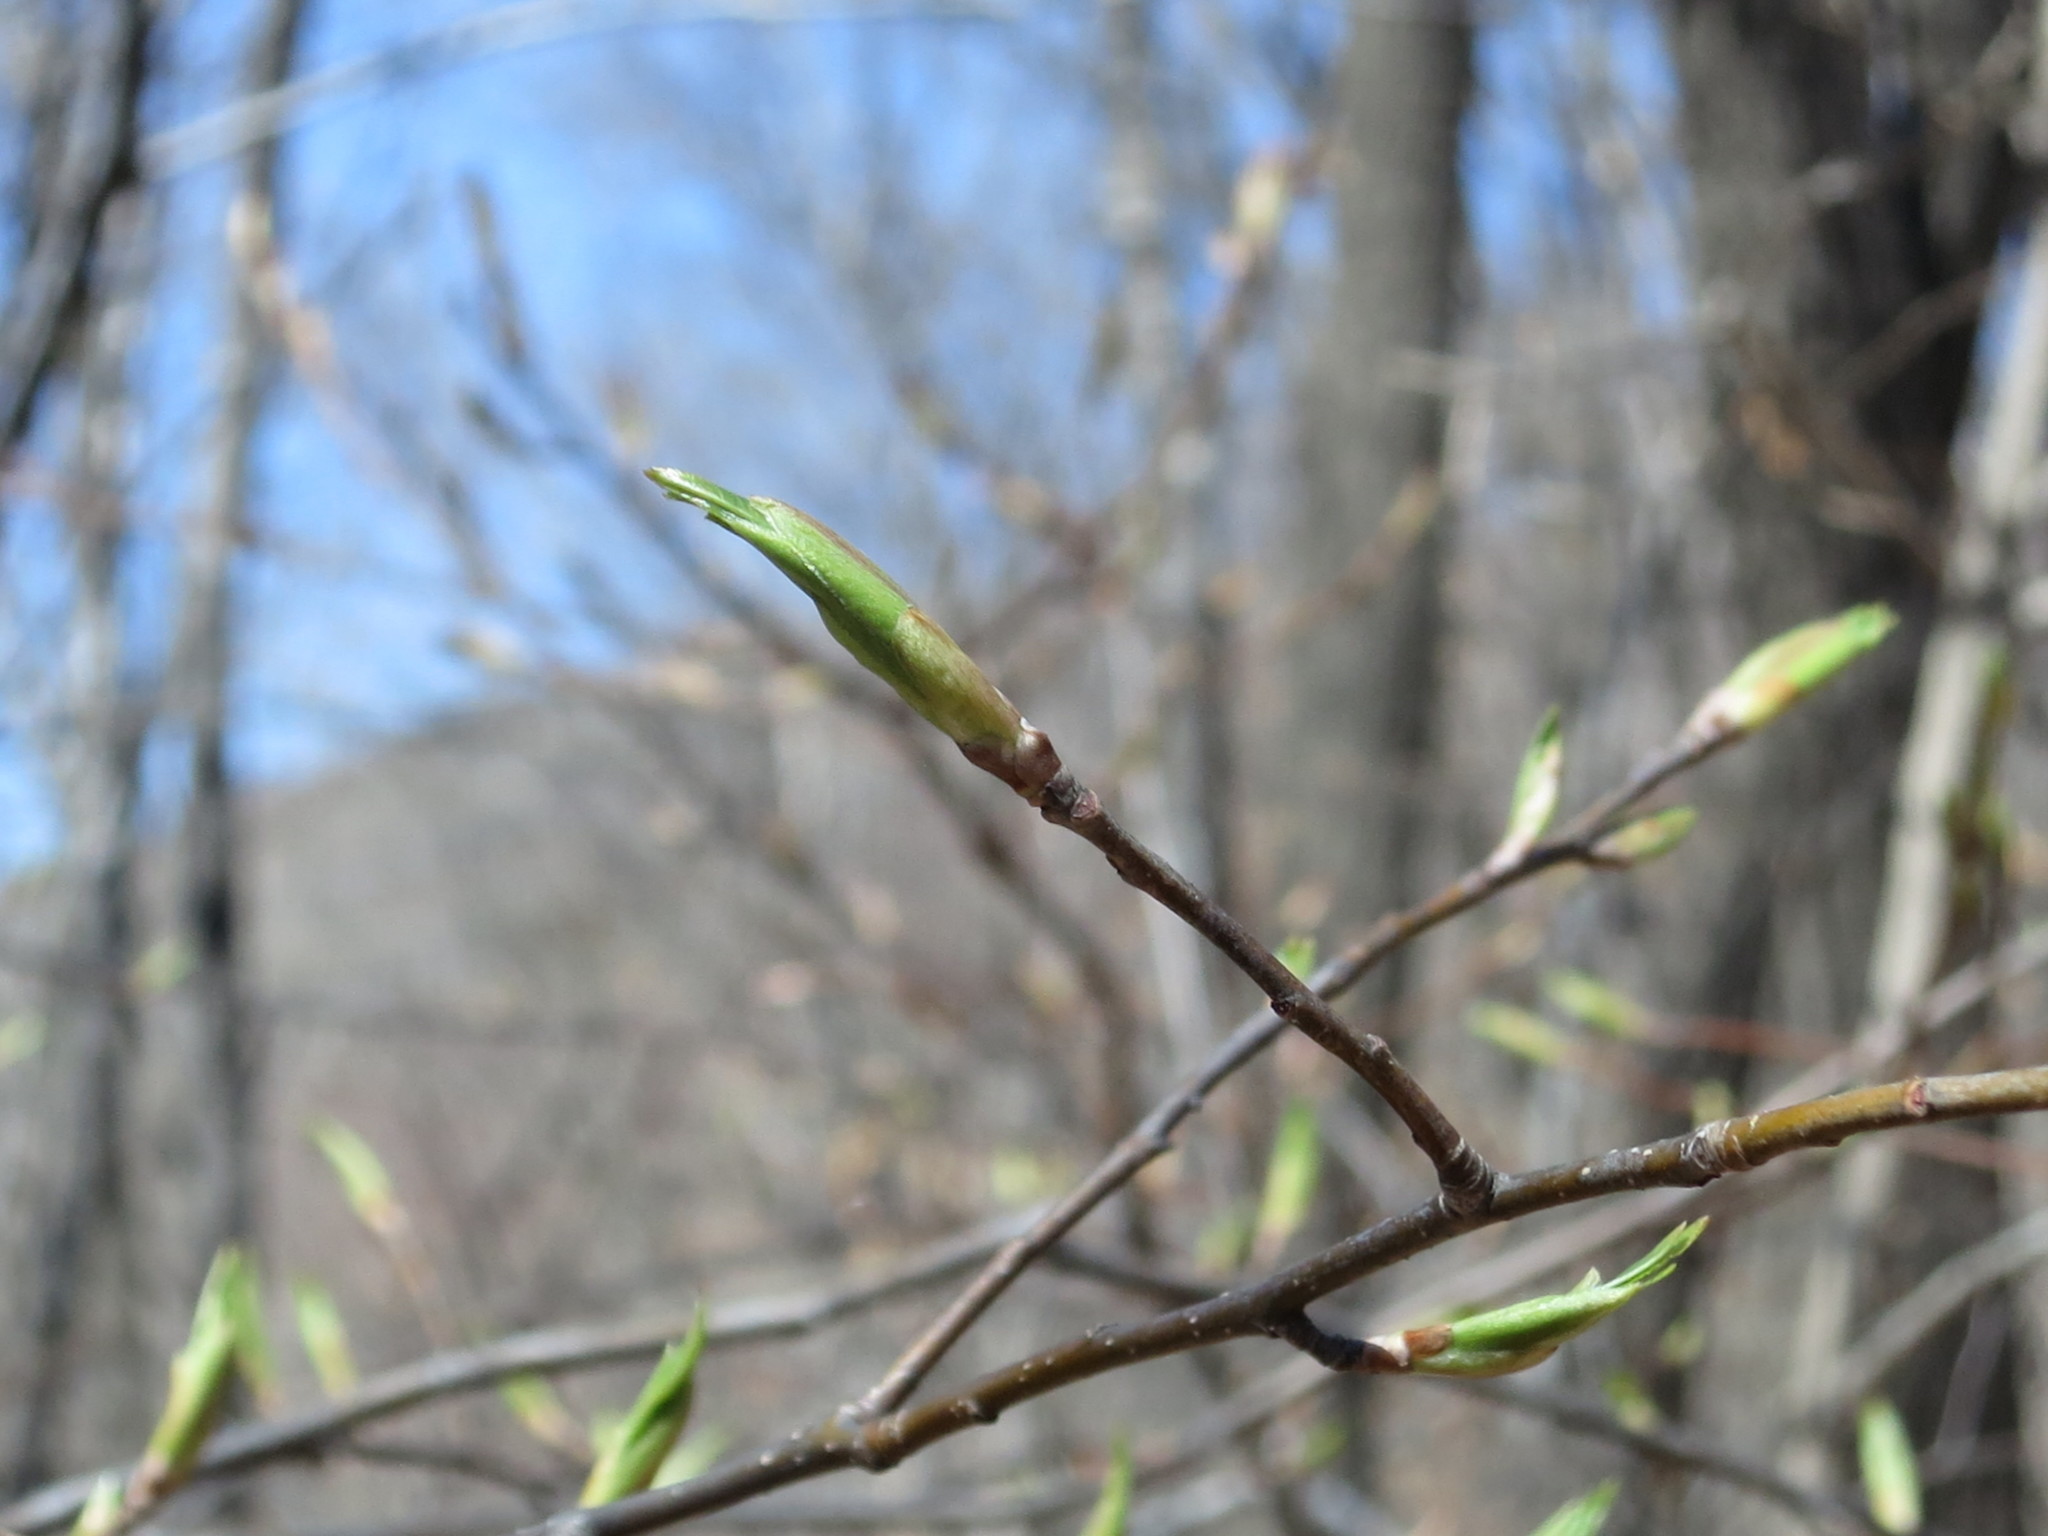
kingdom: Plantae
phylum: Tracheophyta
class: Magnoliopsida
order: Rosales
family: Rosaceae
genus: Prunus
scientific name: Prunus padus
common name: Bird cherry
